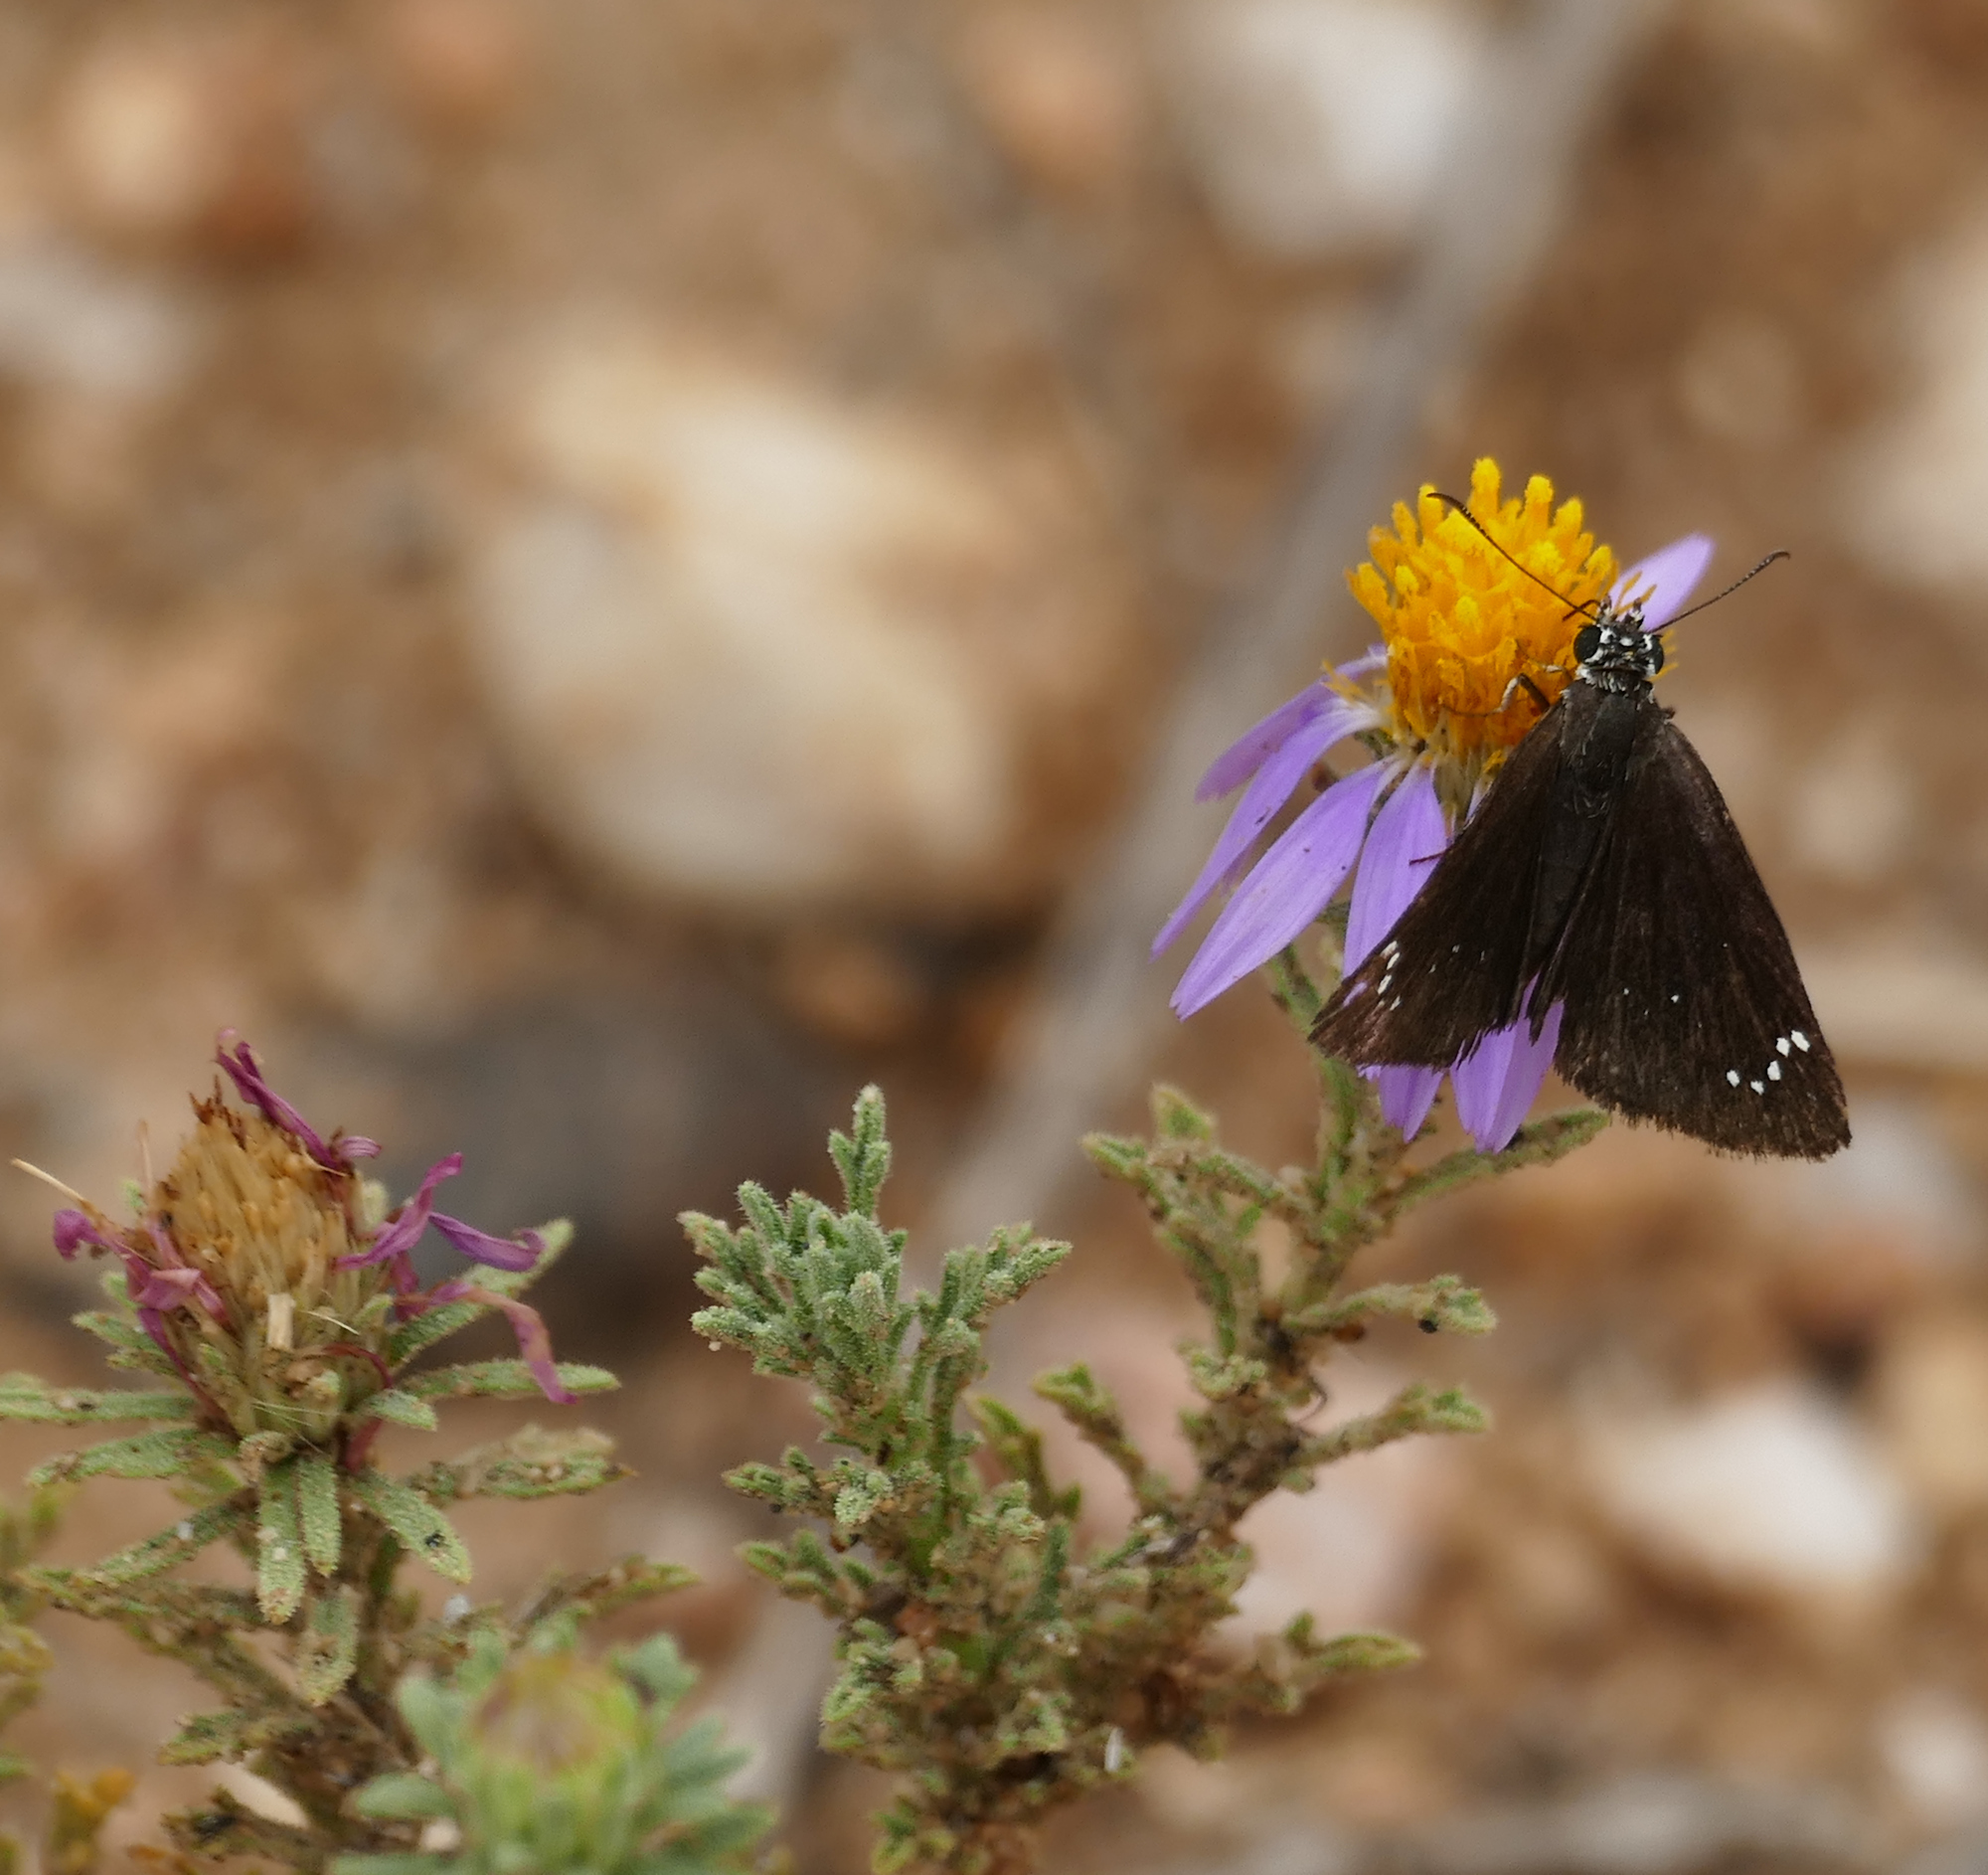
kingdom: Animalia
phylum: Arthropoda
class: Insecta
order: Lepidoptera
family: Hesperiidae
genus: Pholisora
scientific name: Pholisora catullus
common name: Common sootywing
